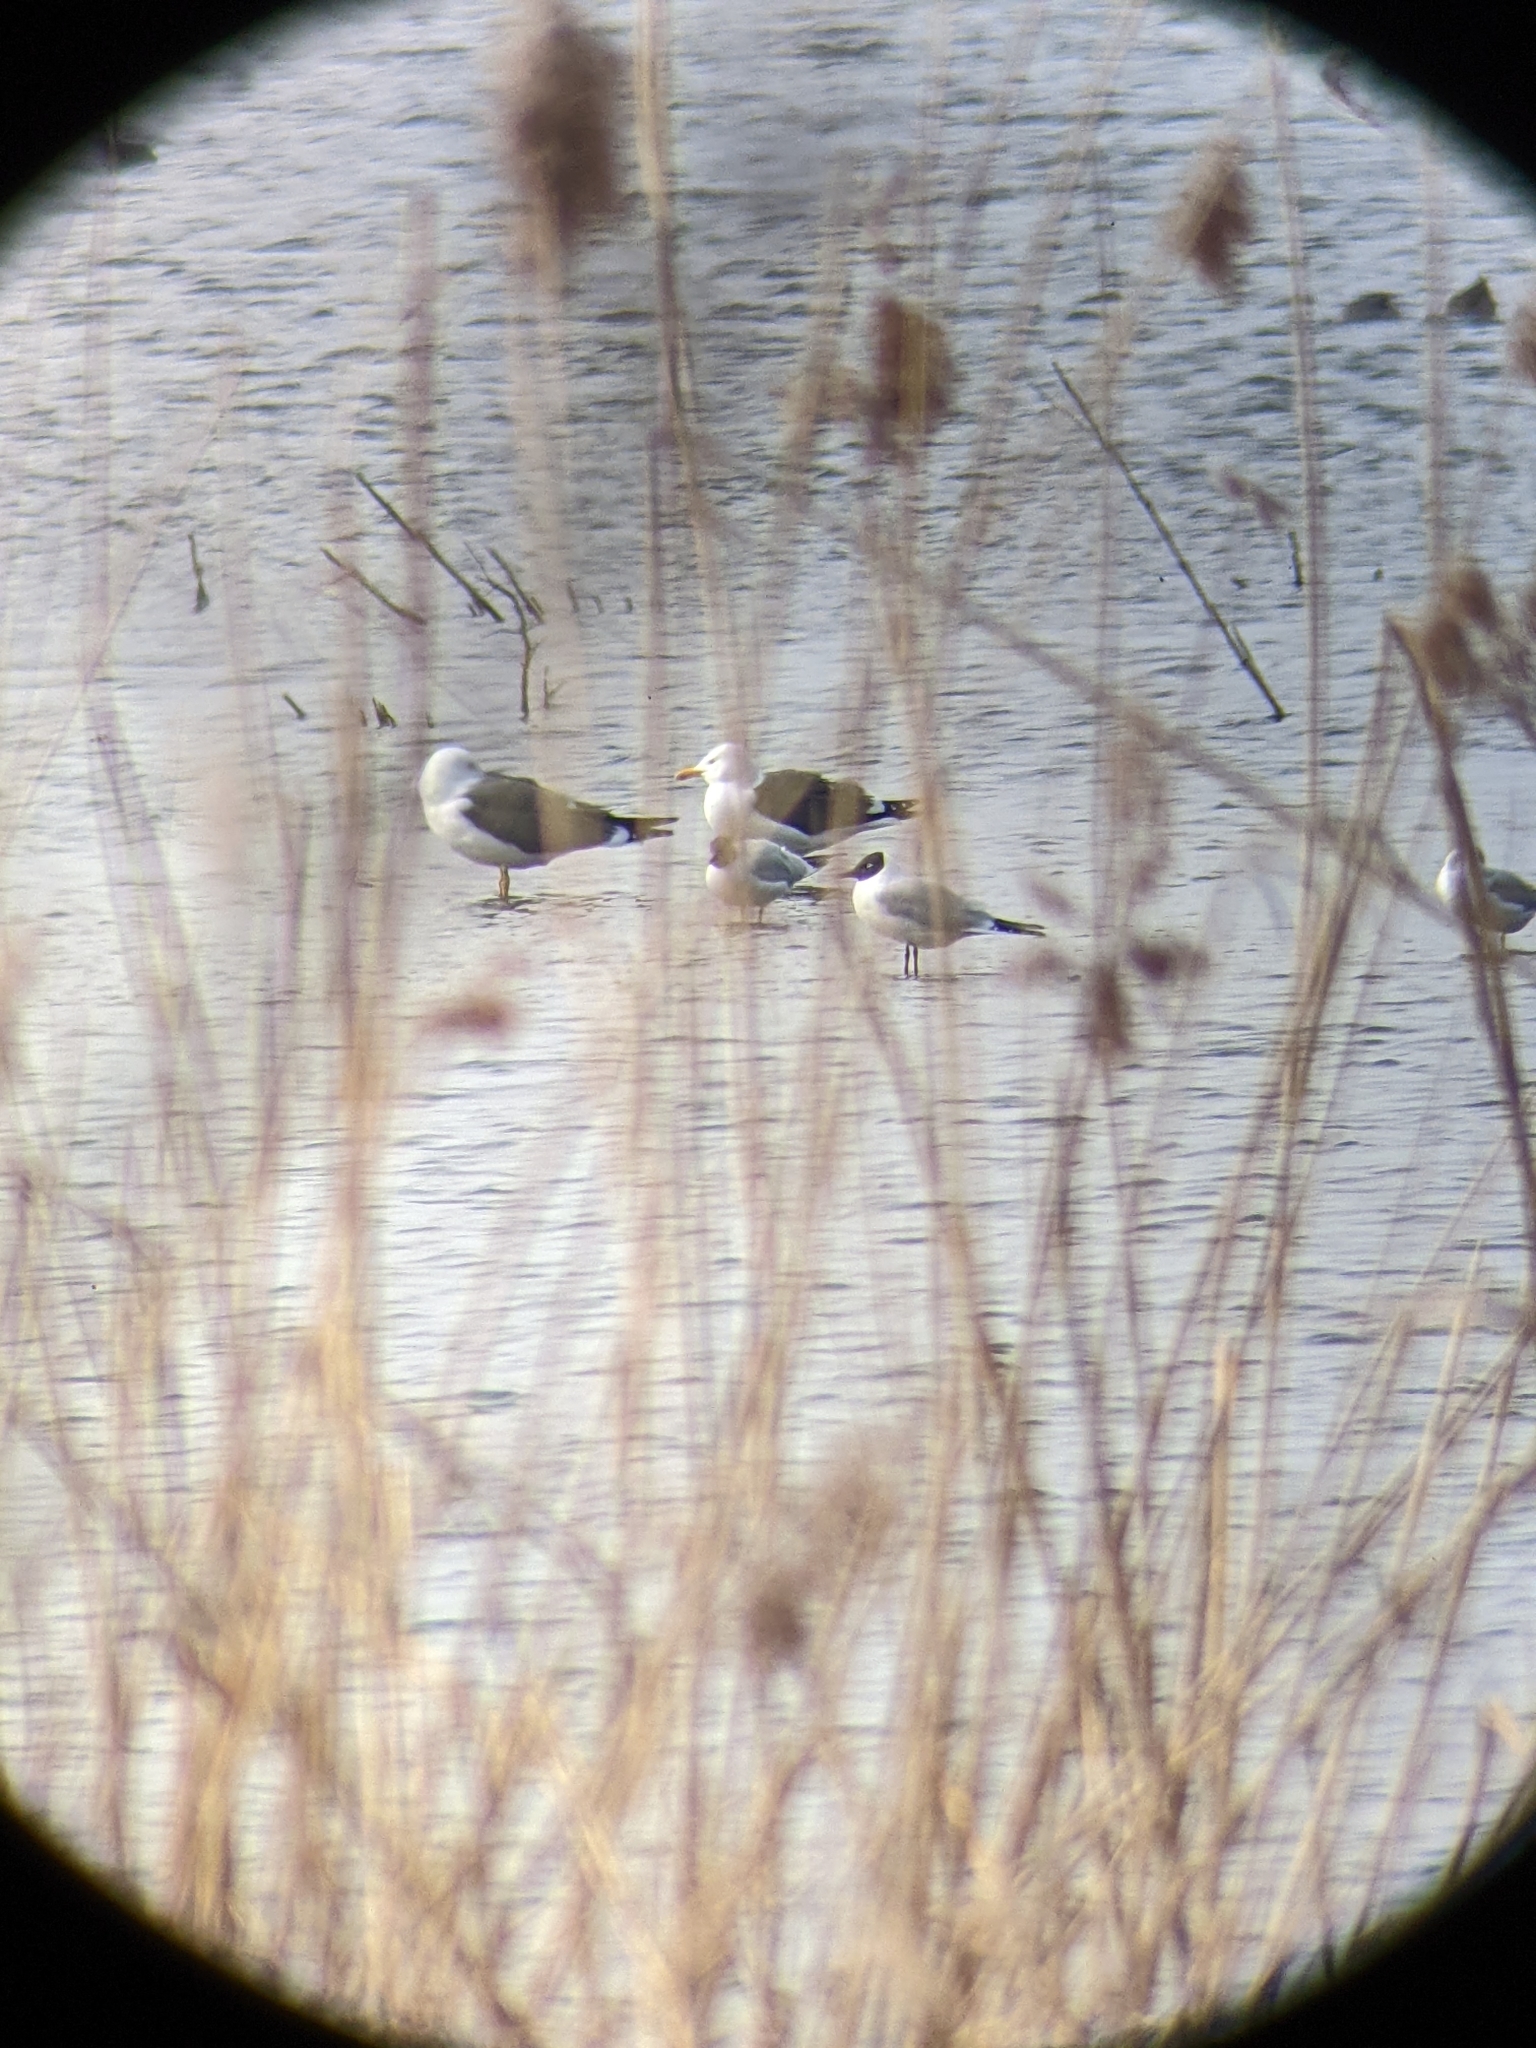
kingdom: Animalia
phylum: Chordata
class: Aves
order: Charadriiformes
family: Laridae
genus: Larus
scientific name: Larus fuscus
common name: Lesser black-backed gull
